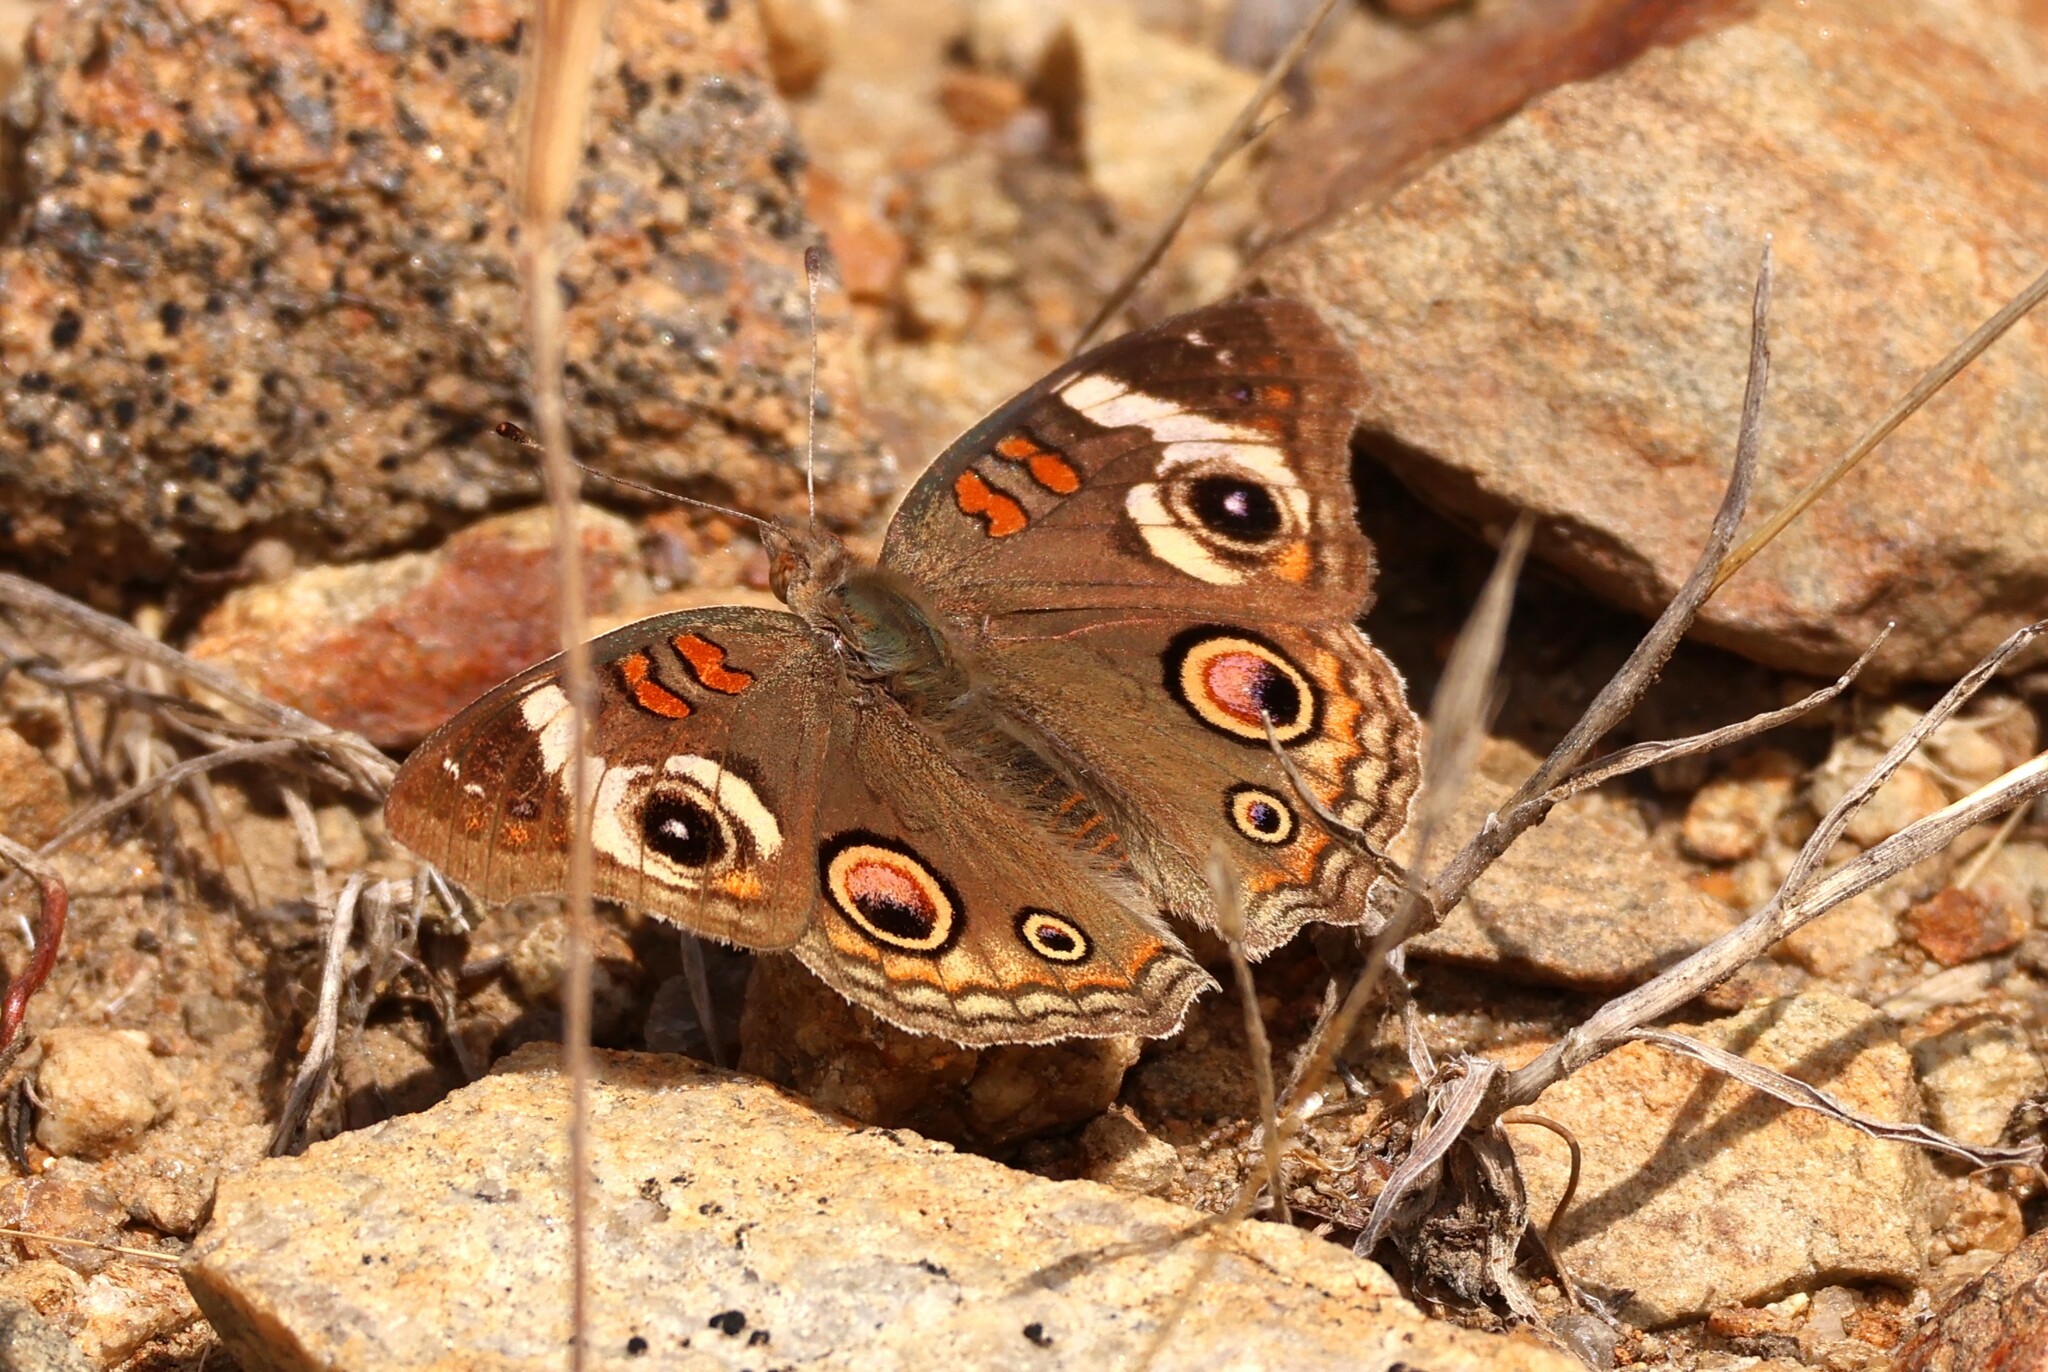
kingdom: Animalia
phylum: Arthropoda
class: Insecta
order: Lepidoptera
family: Nymphalidae
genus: Junonia
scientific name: Junonia grisea
